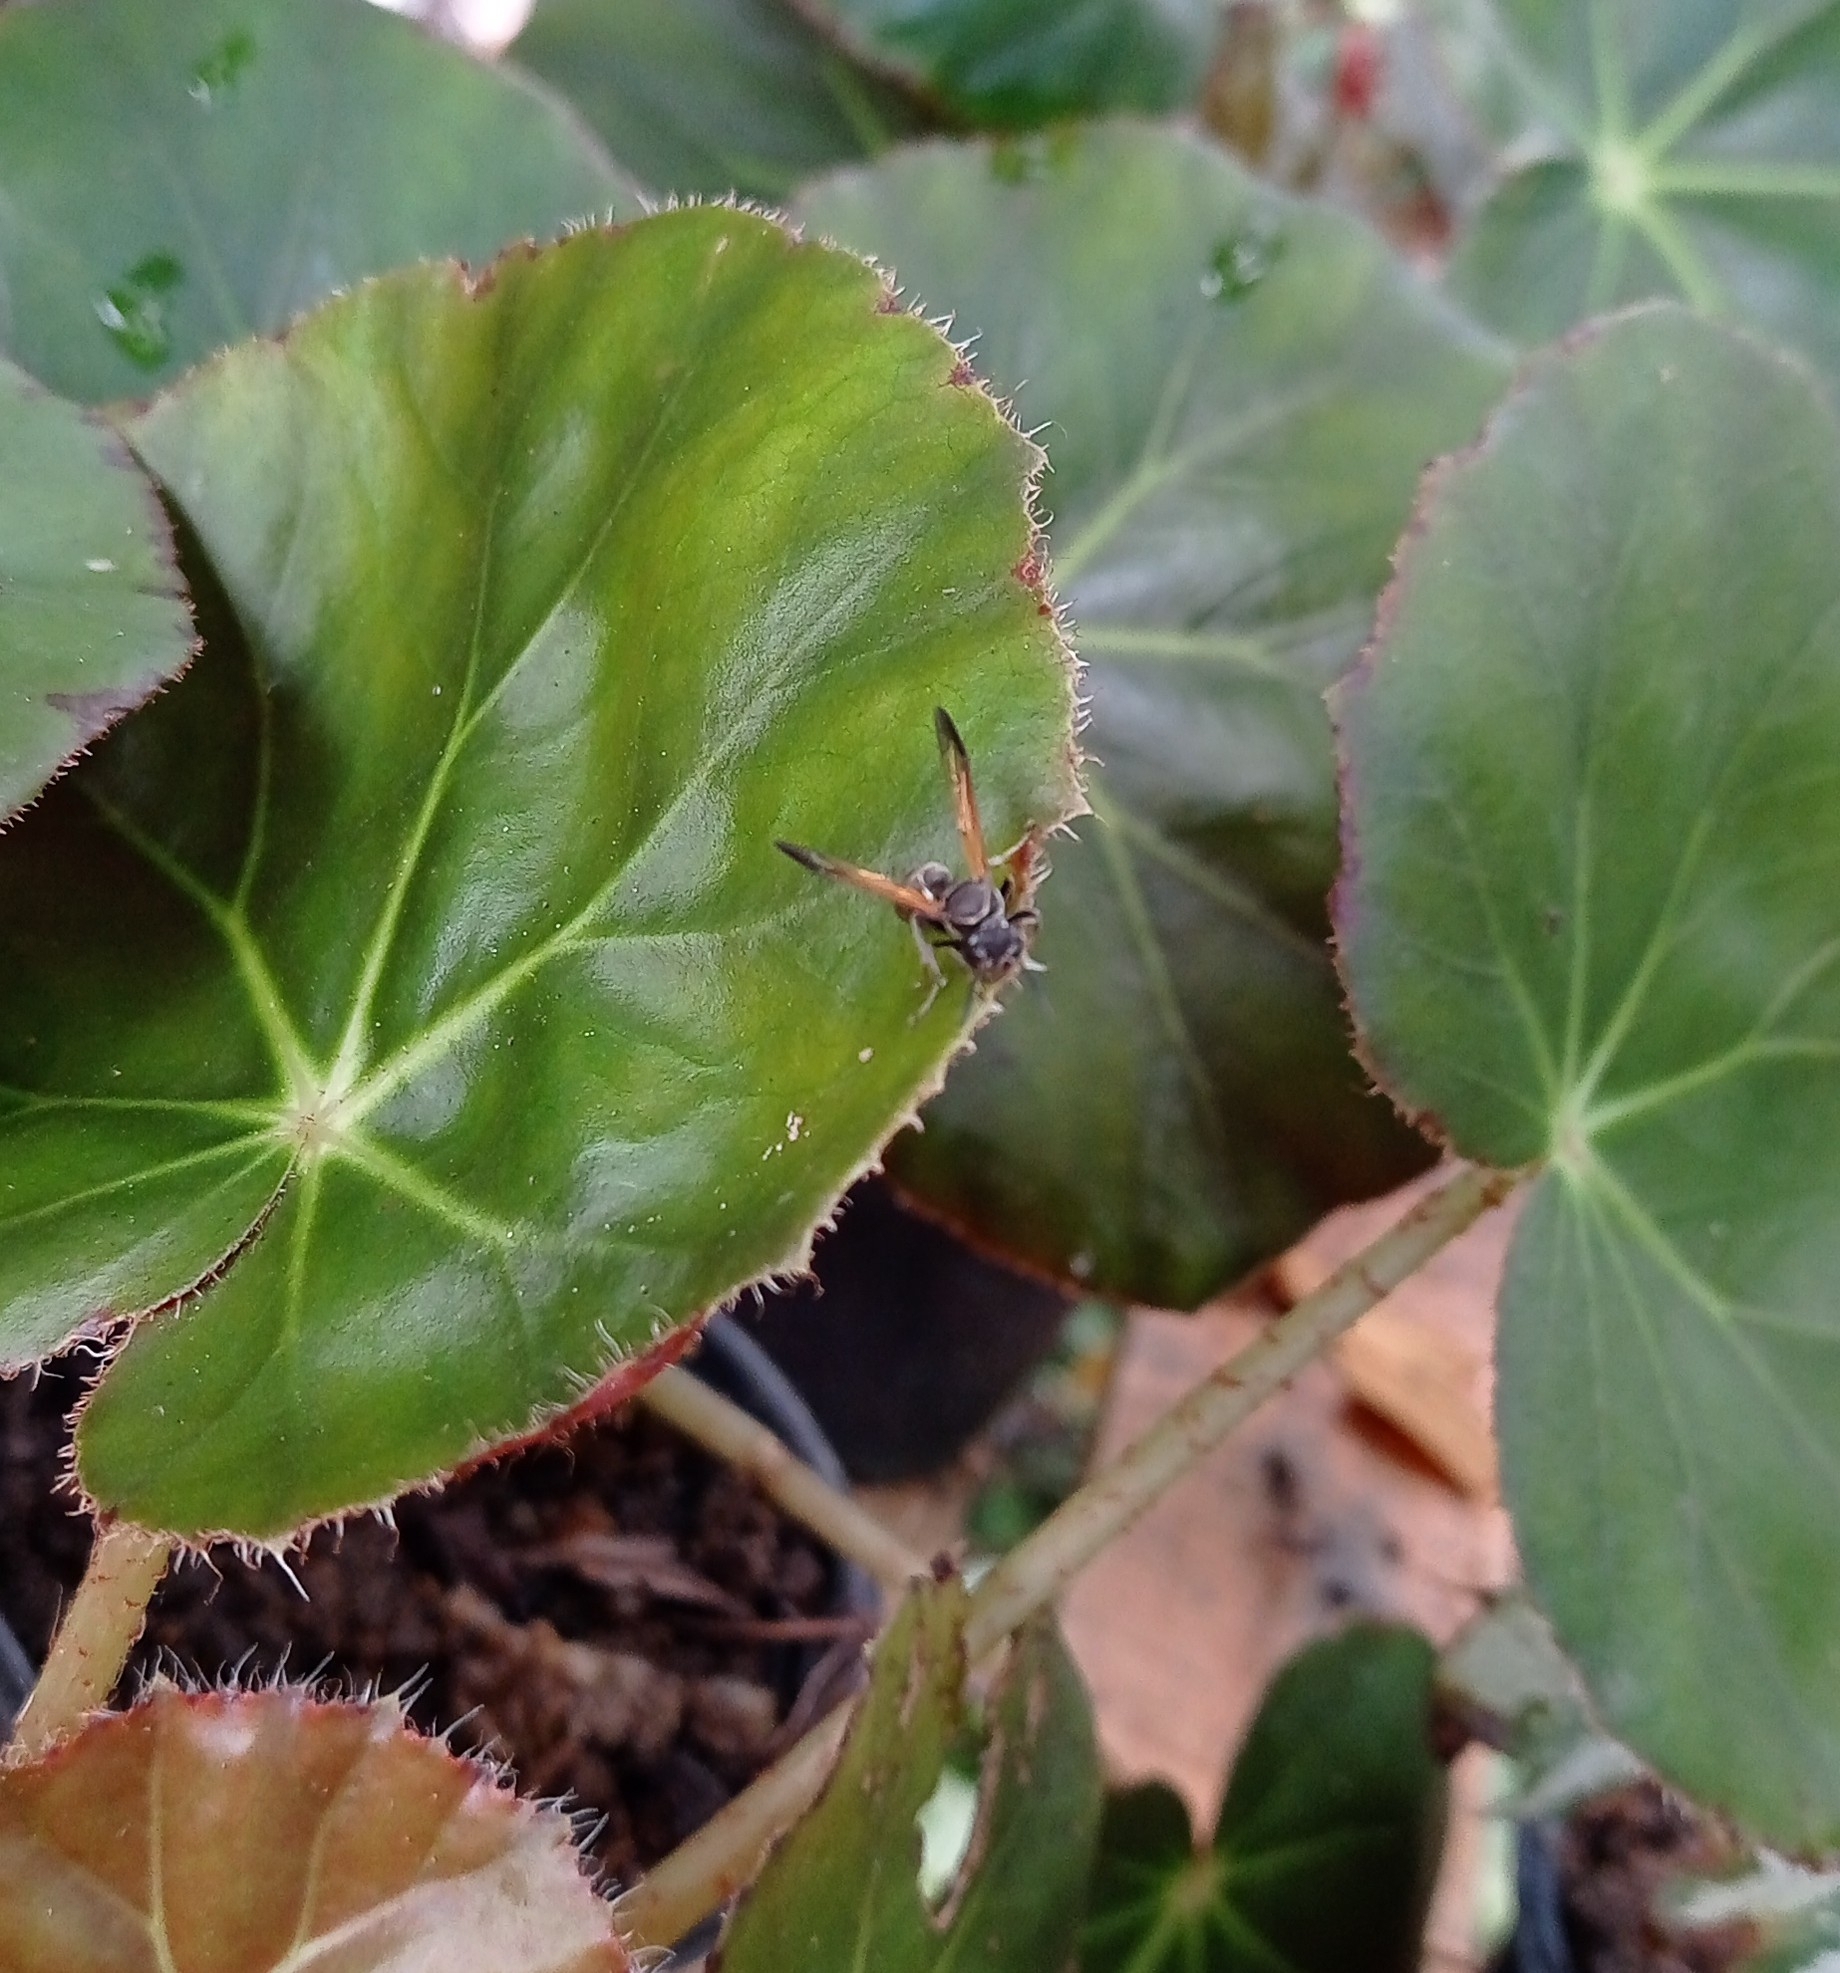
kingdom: Animalia
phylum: Arthropoda
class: Insecta
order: Hymenoptera
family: Eumenidae
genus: Polybia
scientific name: Polybia rejecta
